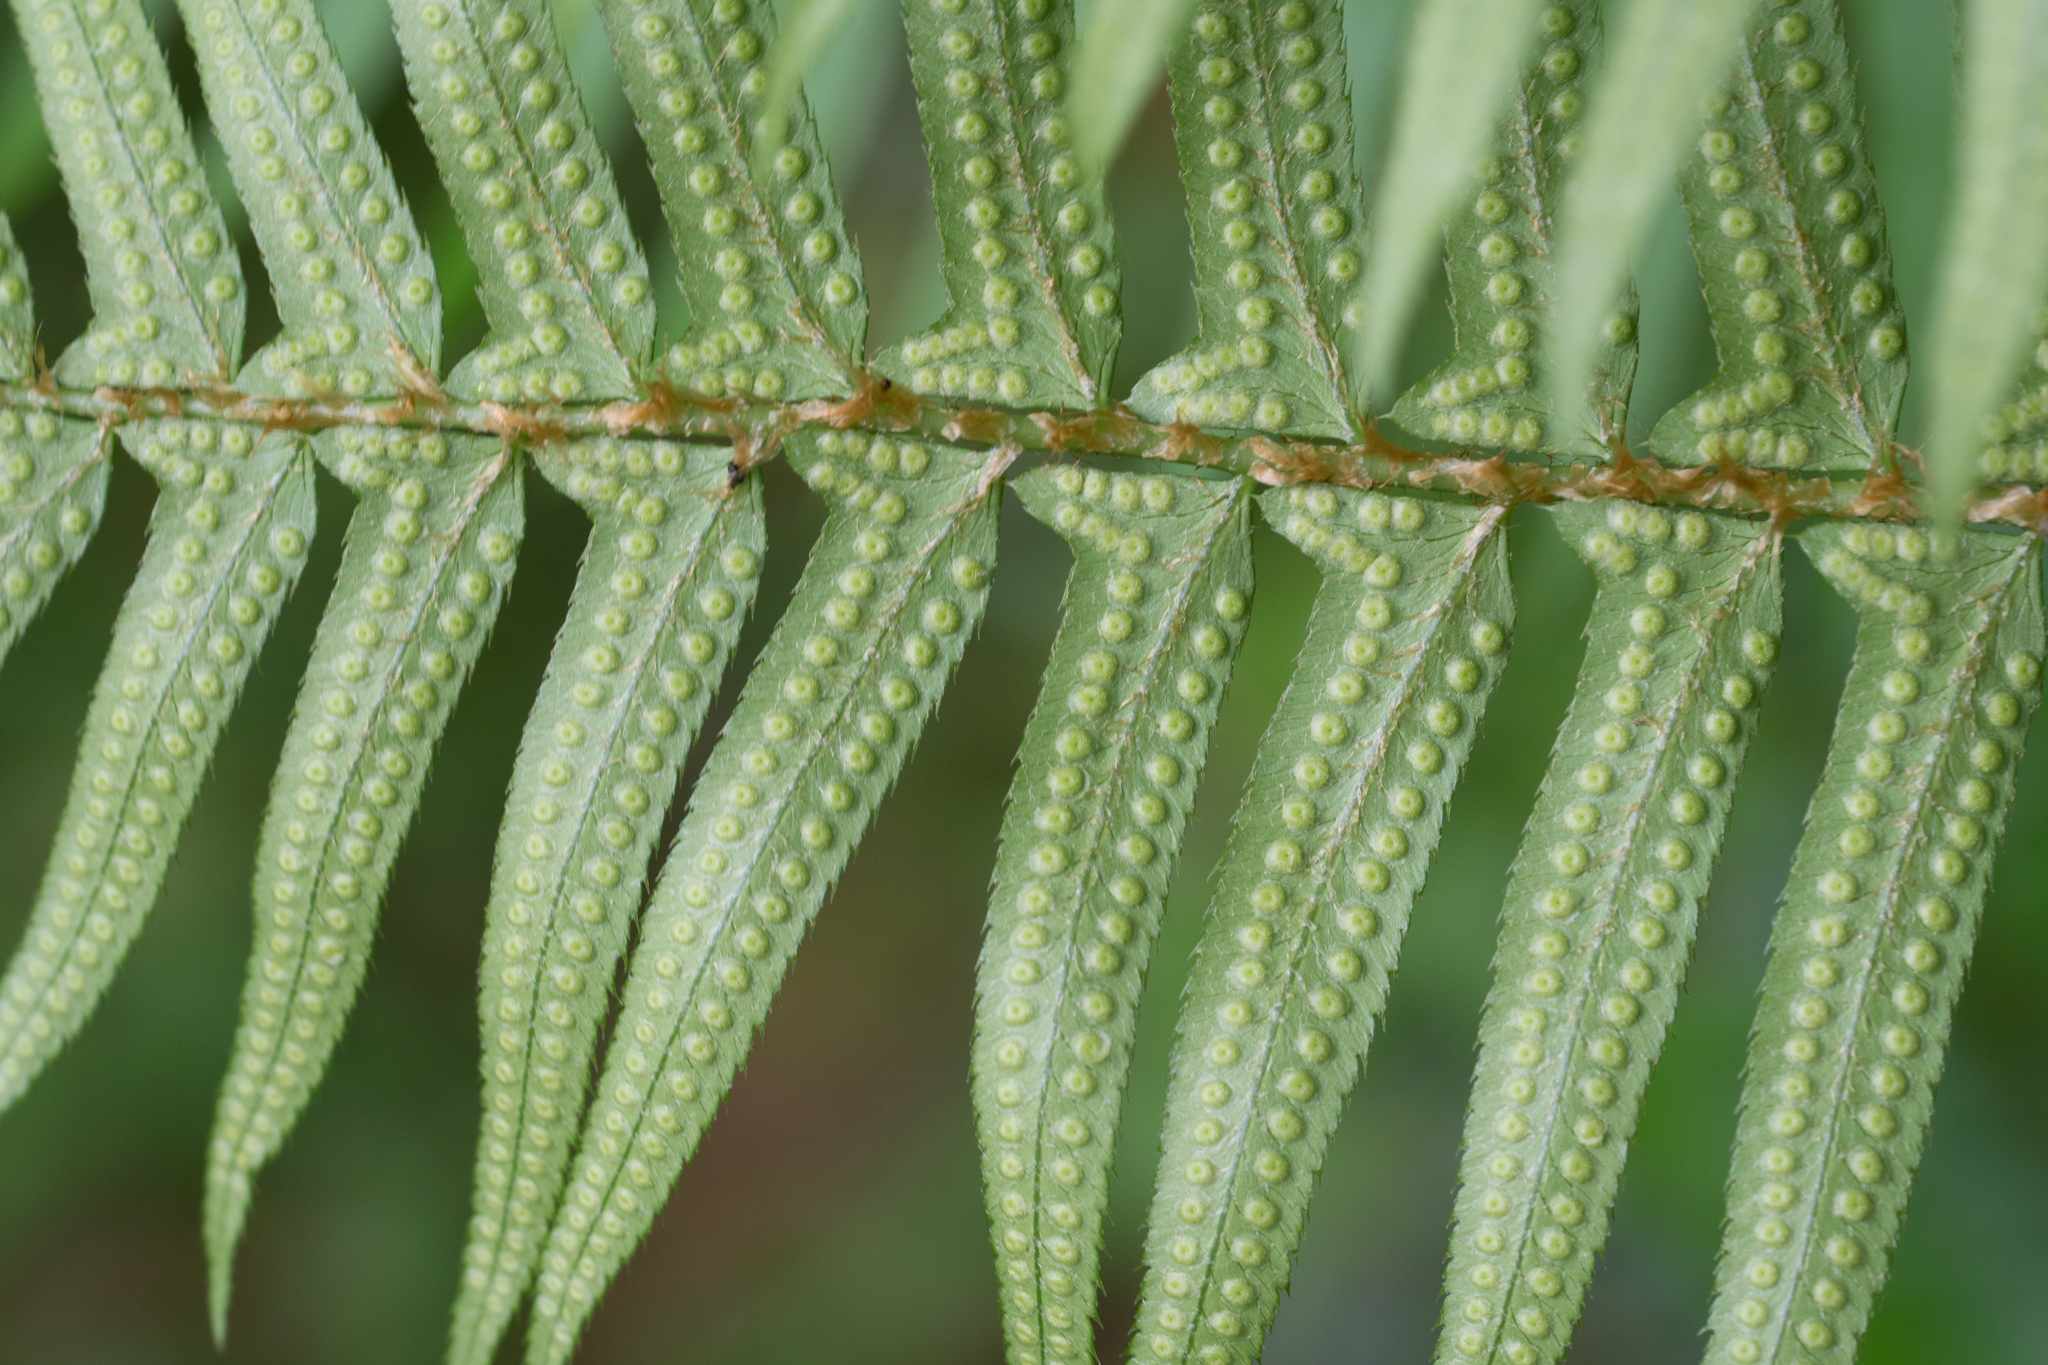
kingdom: Plantae
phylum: Tracheophyta
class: Polypodiopsida
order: Polypodiales
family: Dryopteridaceae
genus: Polystichum
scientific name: Polystichum munitum
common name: Western sword-fern
